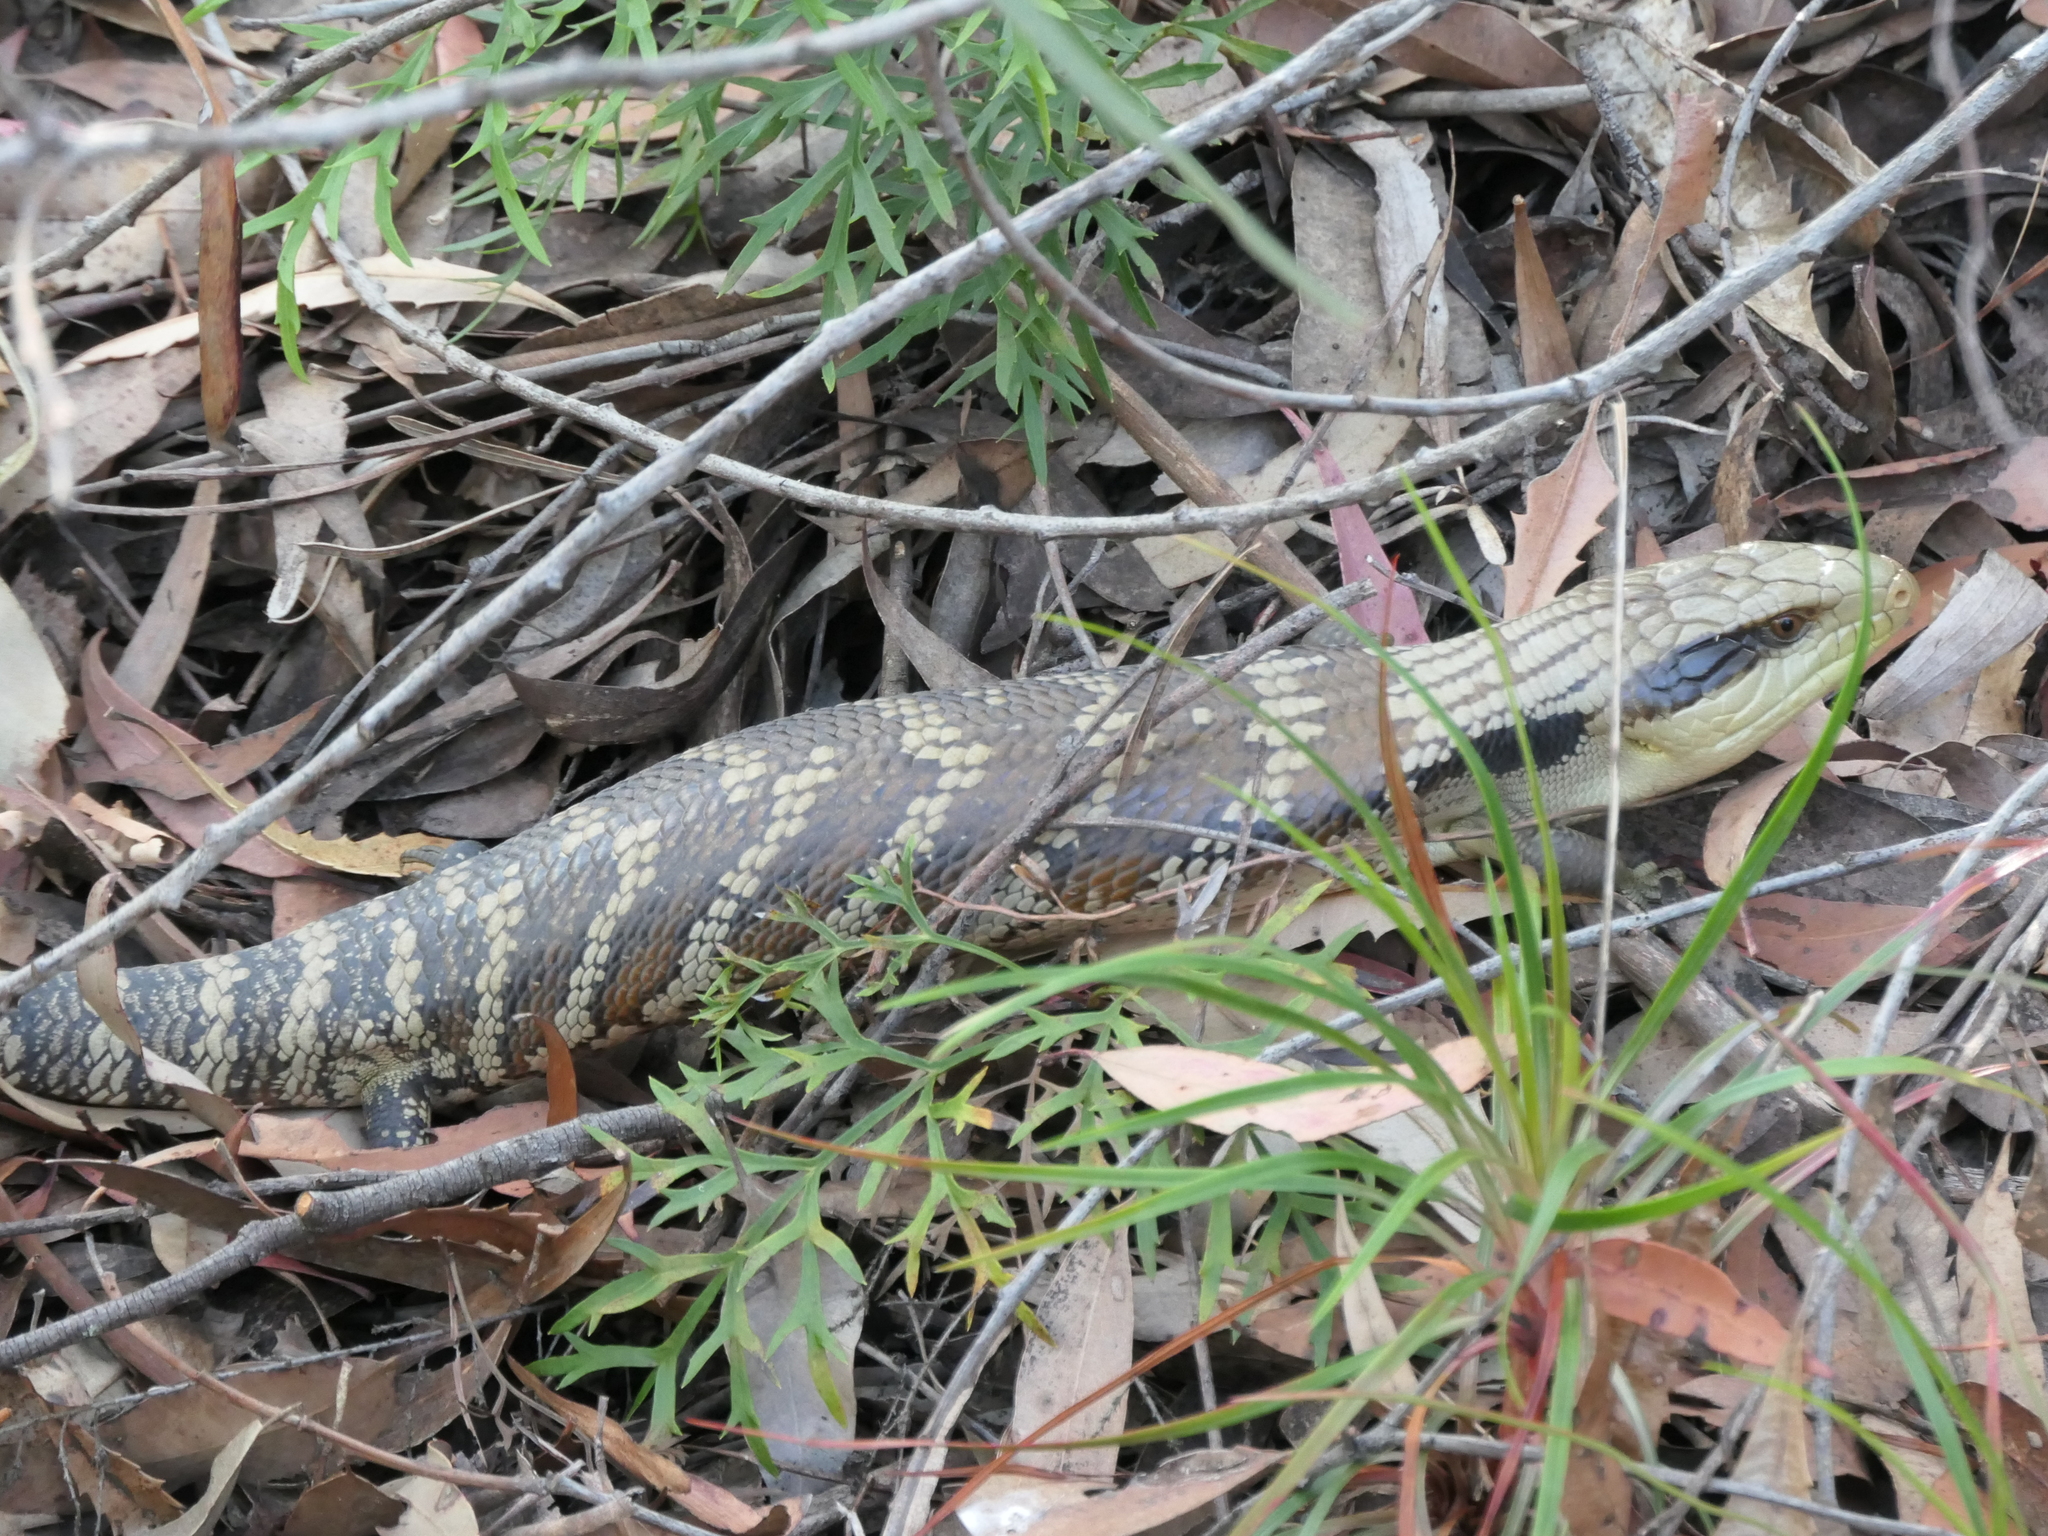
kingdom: Animalia
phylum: Chordata
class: Squamata
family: Scincidae
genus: Tiliqua
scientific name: Tiliqua scincoides
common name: Common bluetongue
